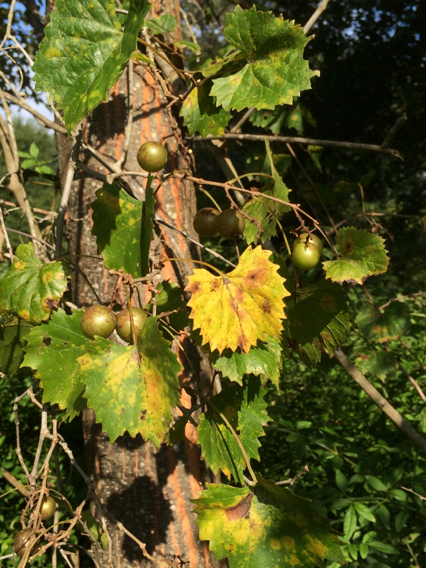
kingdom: Plantae
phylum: Tracheophyta
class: Magnoliopsida
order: Vitales
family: Vitaceae
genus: Vitis
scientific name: Vitis rotundifolia
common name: Muscadine grape
